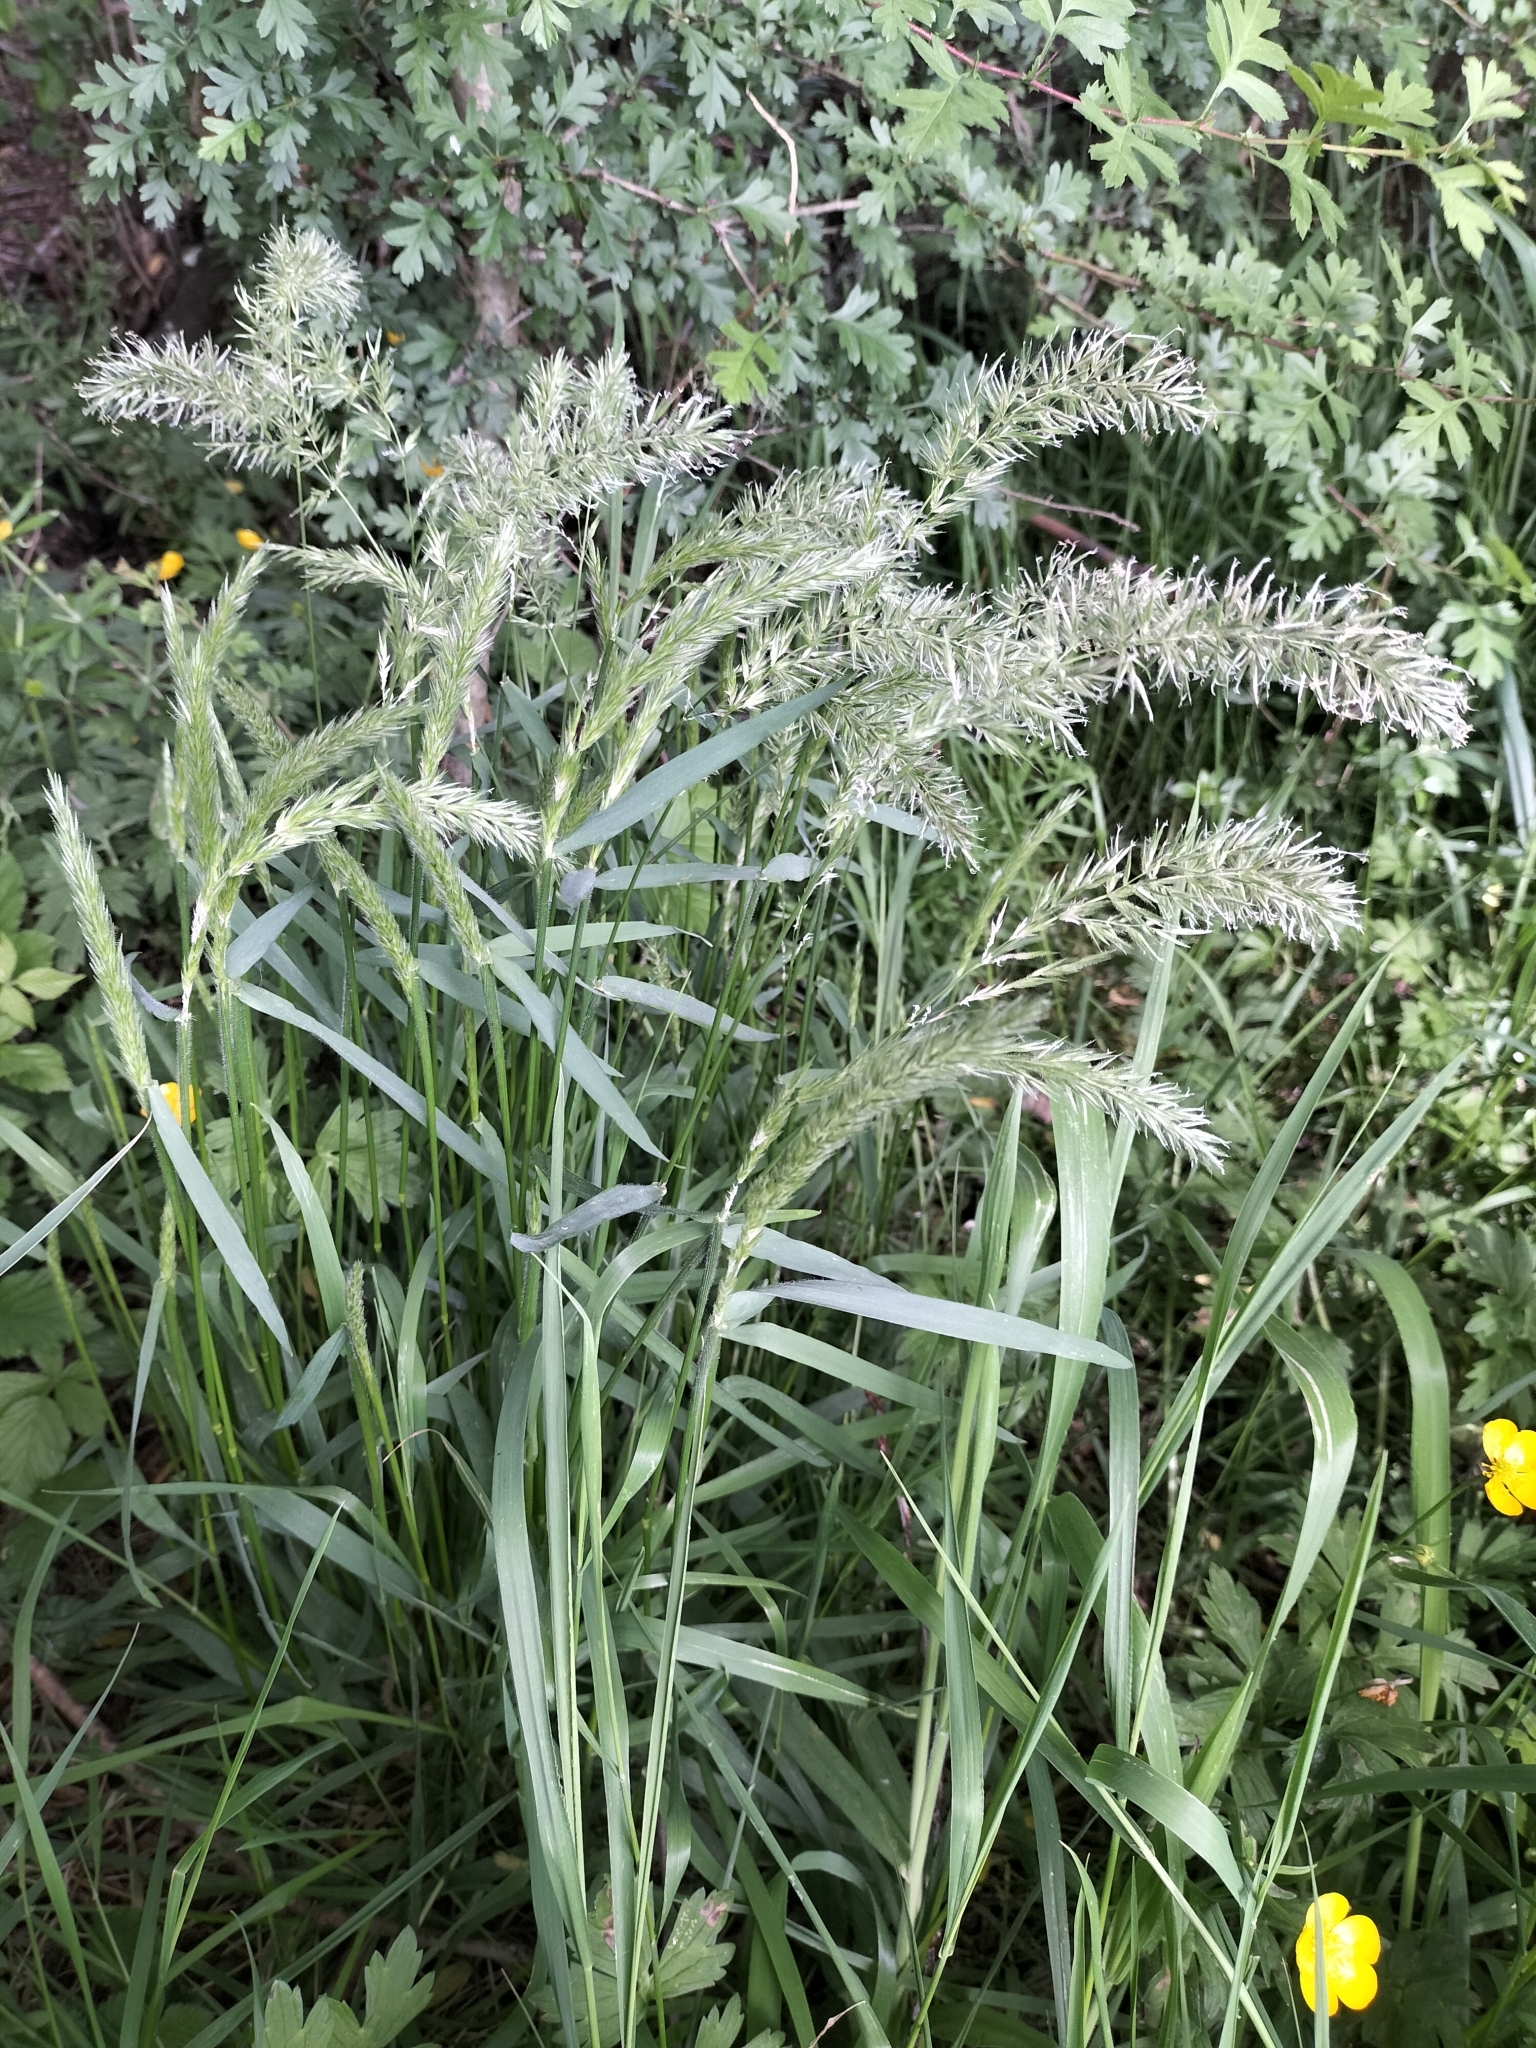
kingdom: Plantae
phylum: Tracheophyta
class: Liliopsida
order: Poales
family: Poaceae
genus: Anthoxanthum
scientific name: Anthoxanthum odoratum
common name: Sweet vernalgrass
